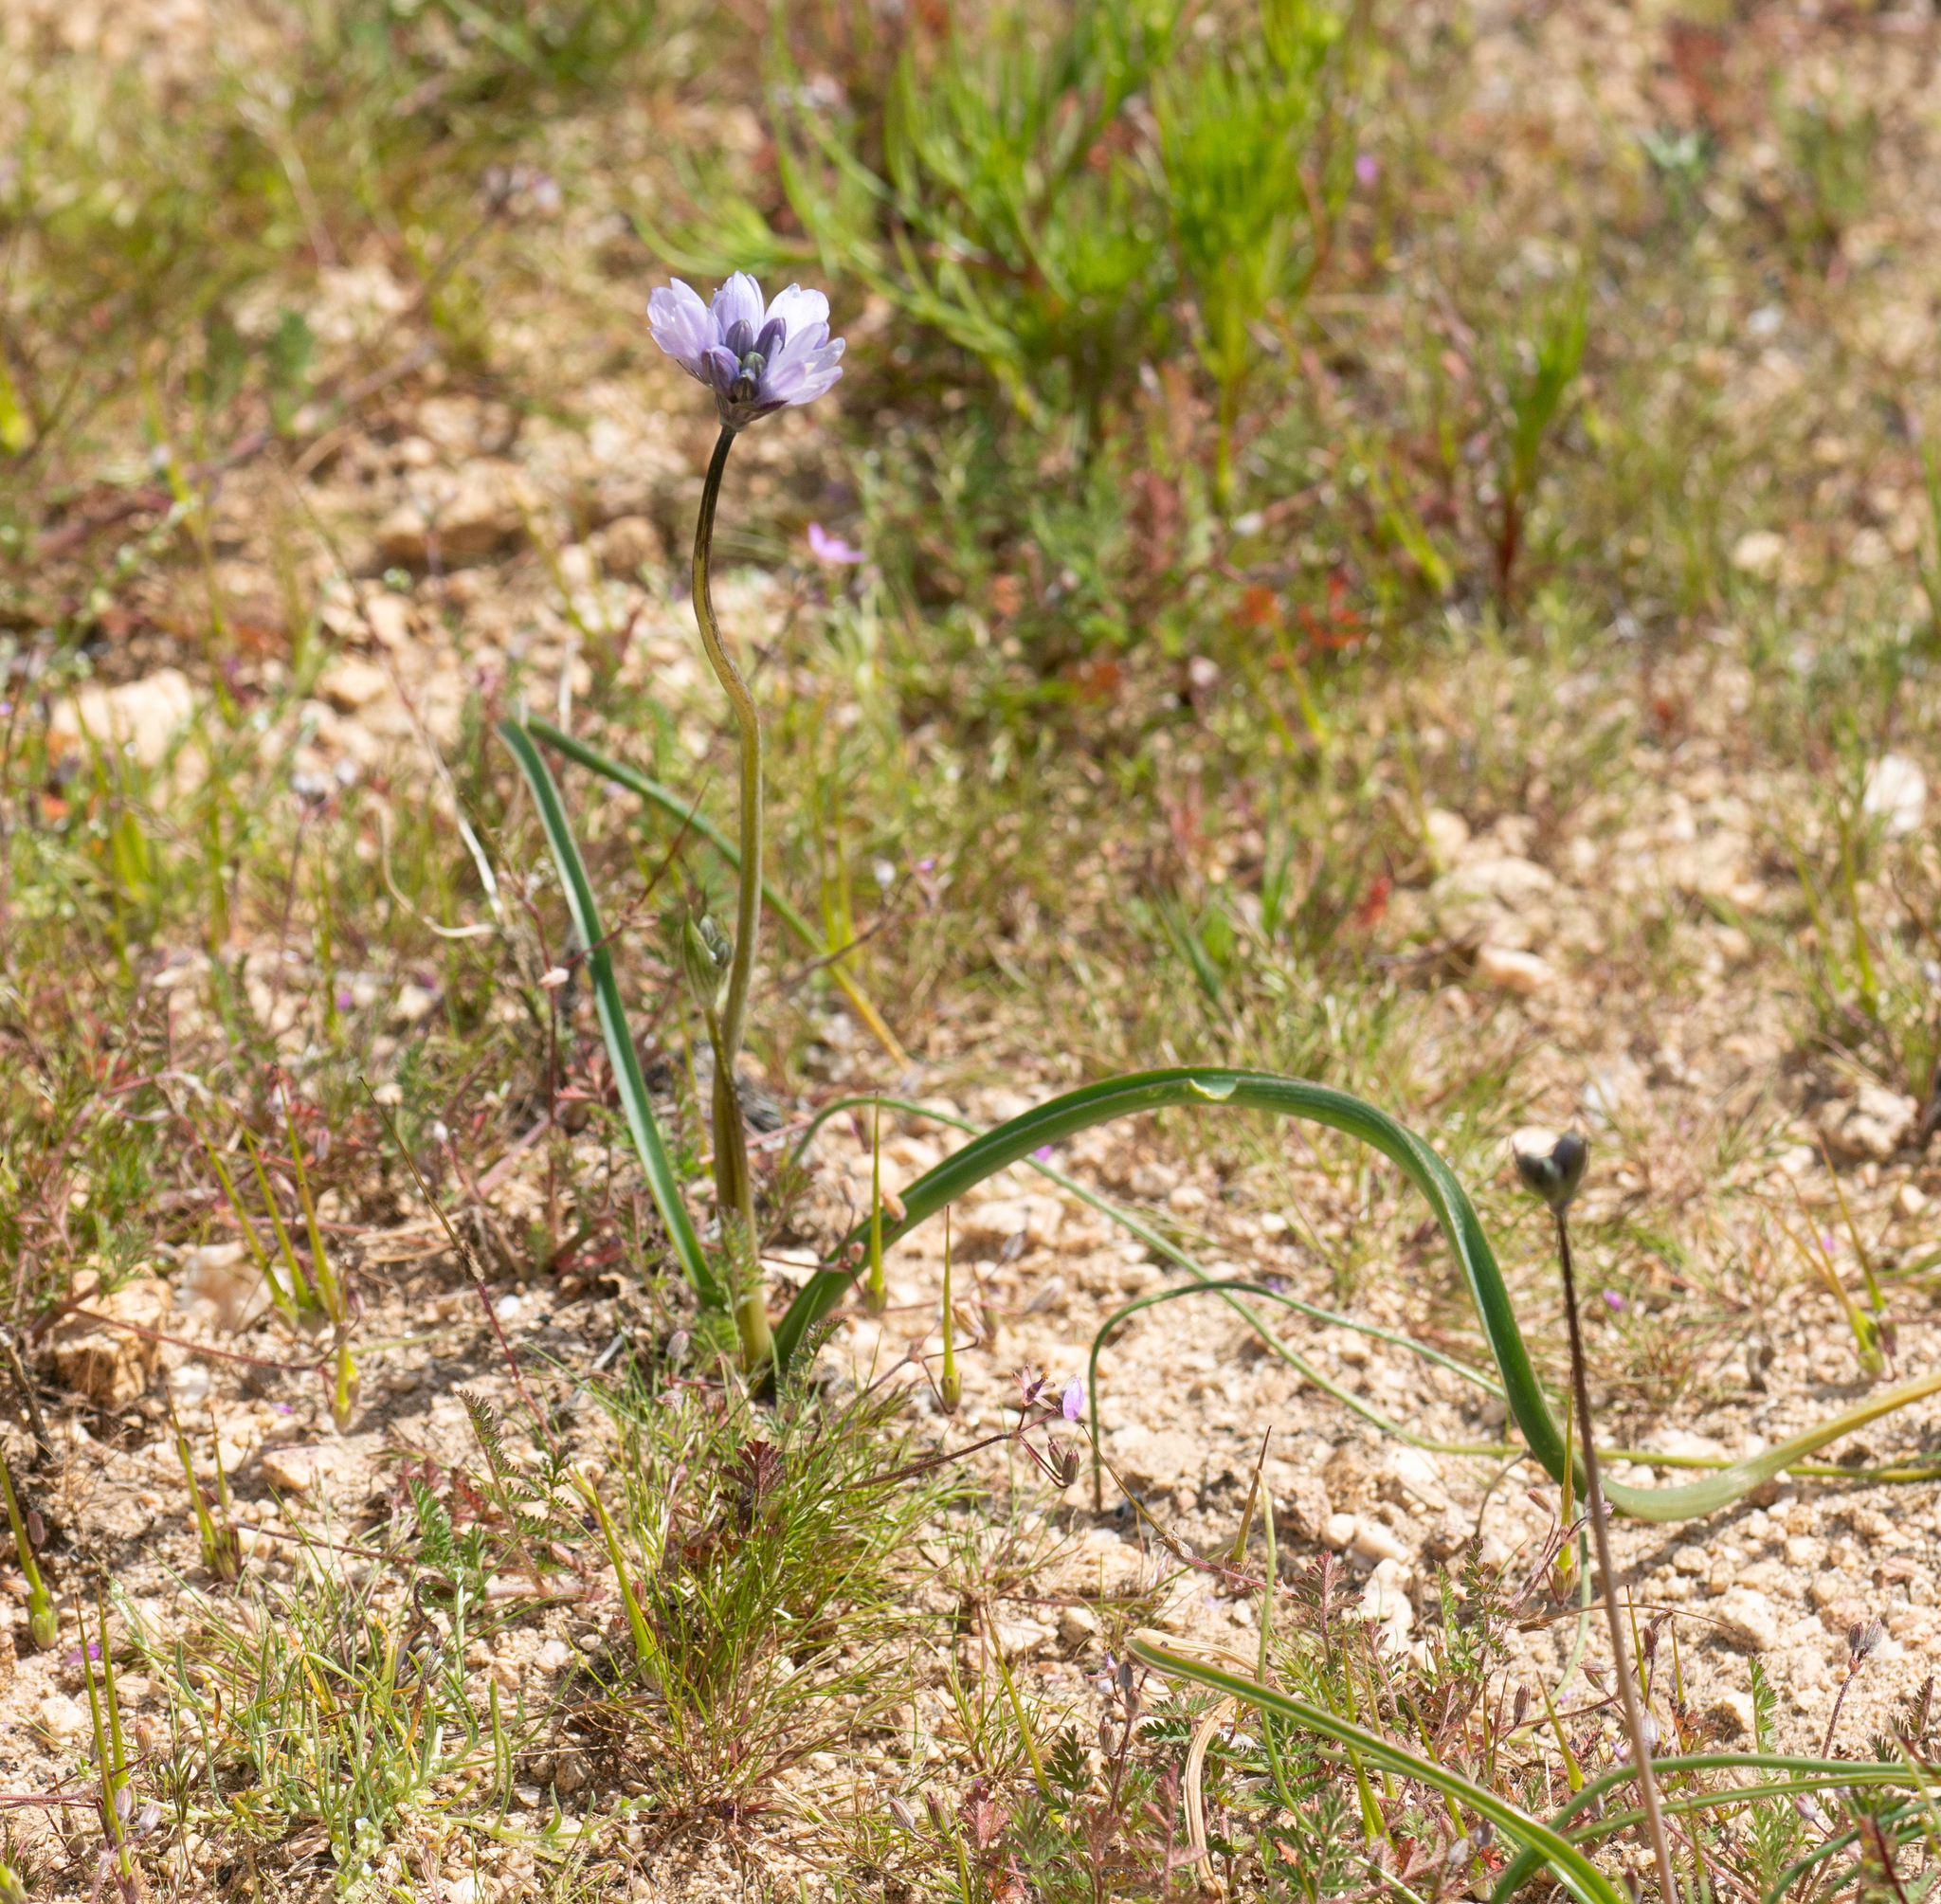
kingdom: Plantae
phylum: Tracheophyta
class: Liliopsida
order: Asparagales
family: Asparagaceae
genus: Dipterostemon
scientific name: Dipterostemon capitatus
